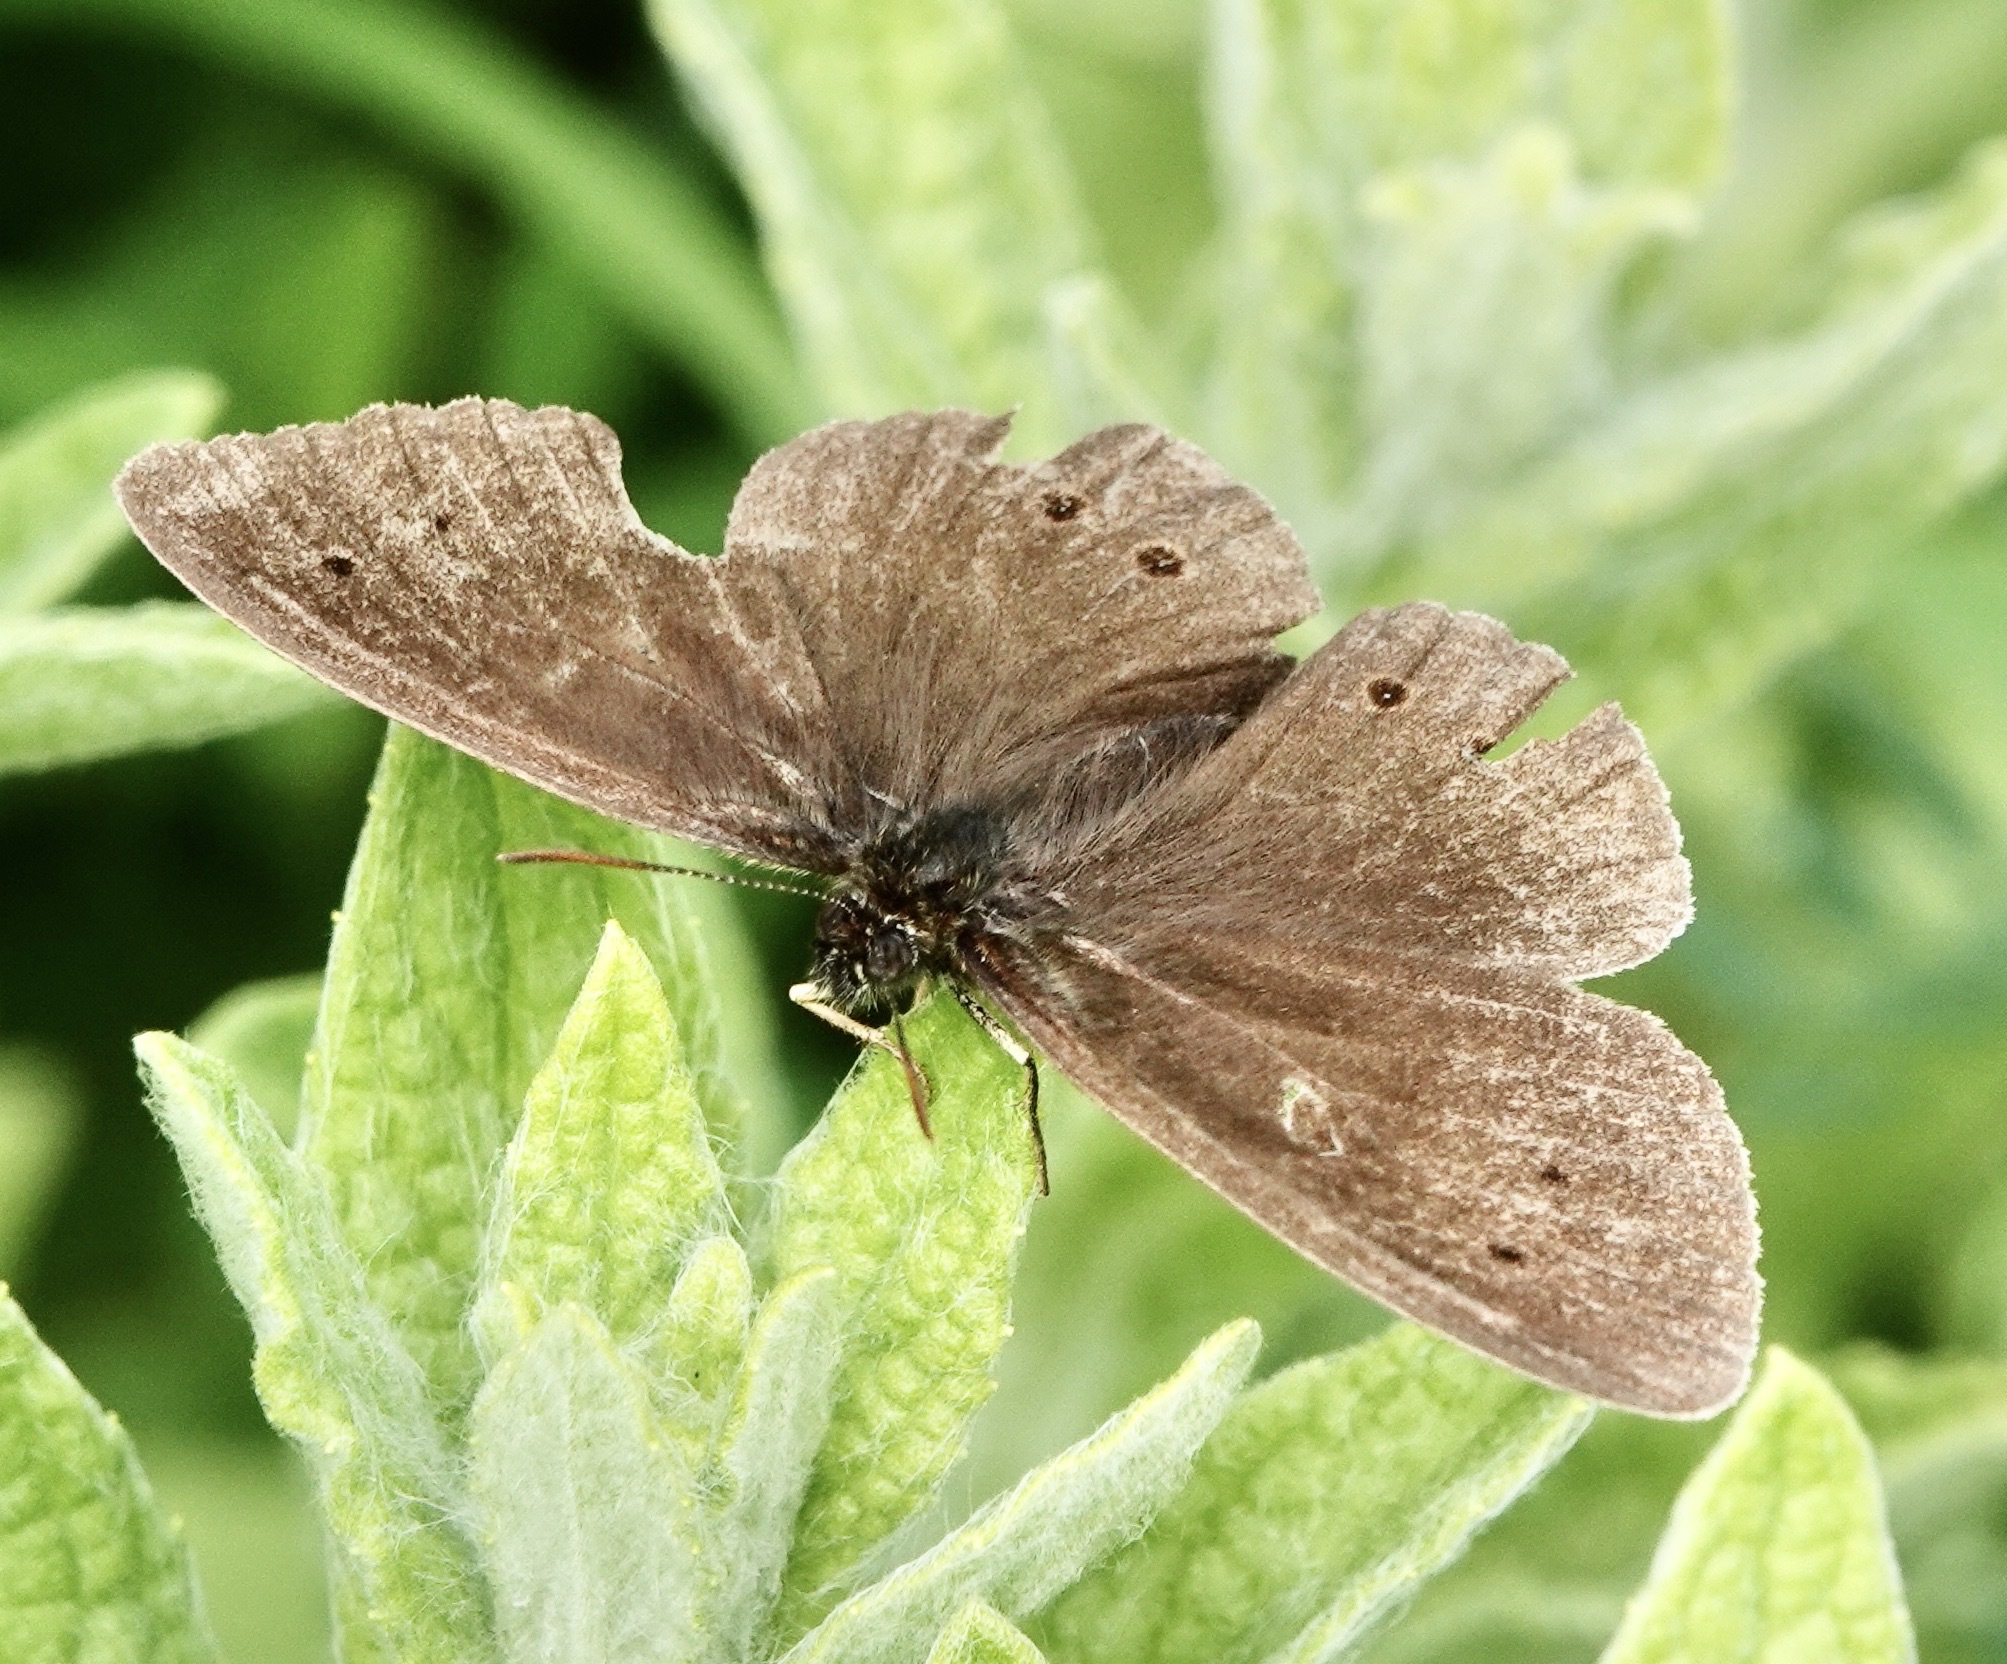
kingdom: Animalia
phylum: Arthropoda
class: Insecta
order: Lepidoptera
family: Nymphalidae
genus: Aphantopus
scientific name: Aphantopus hyperantus
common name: Ringlet
